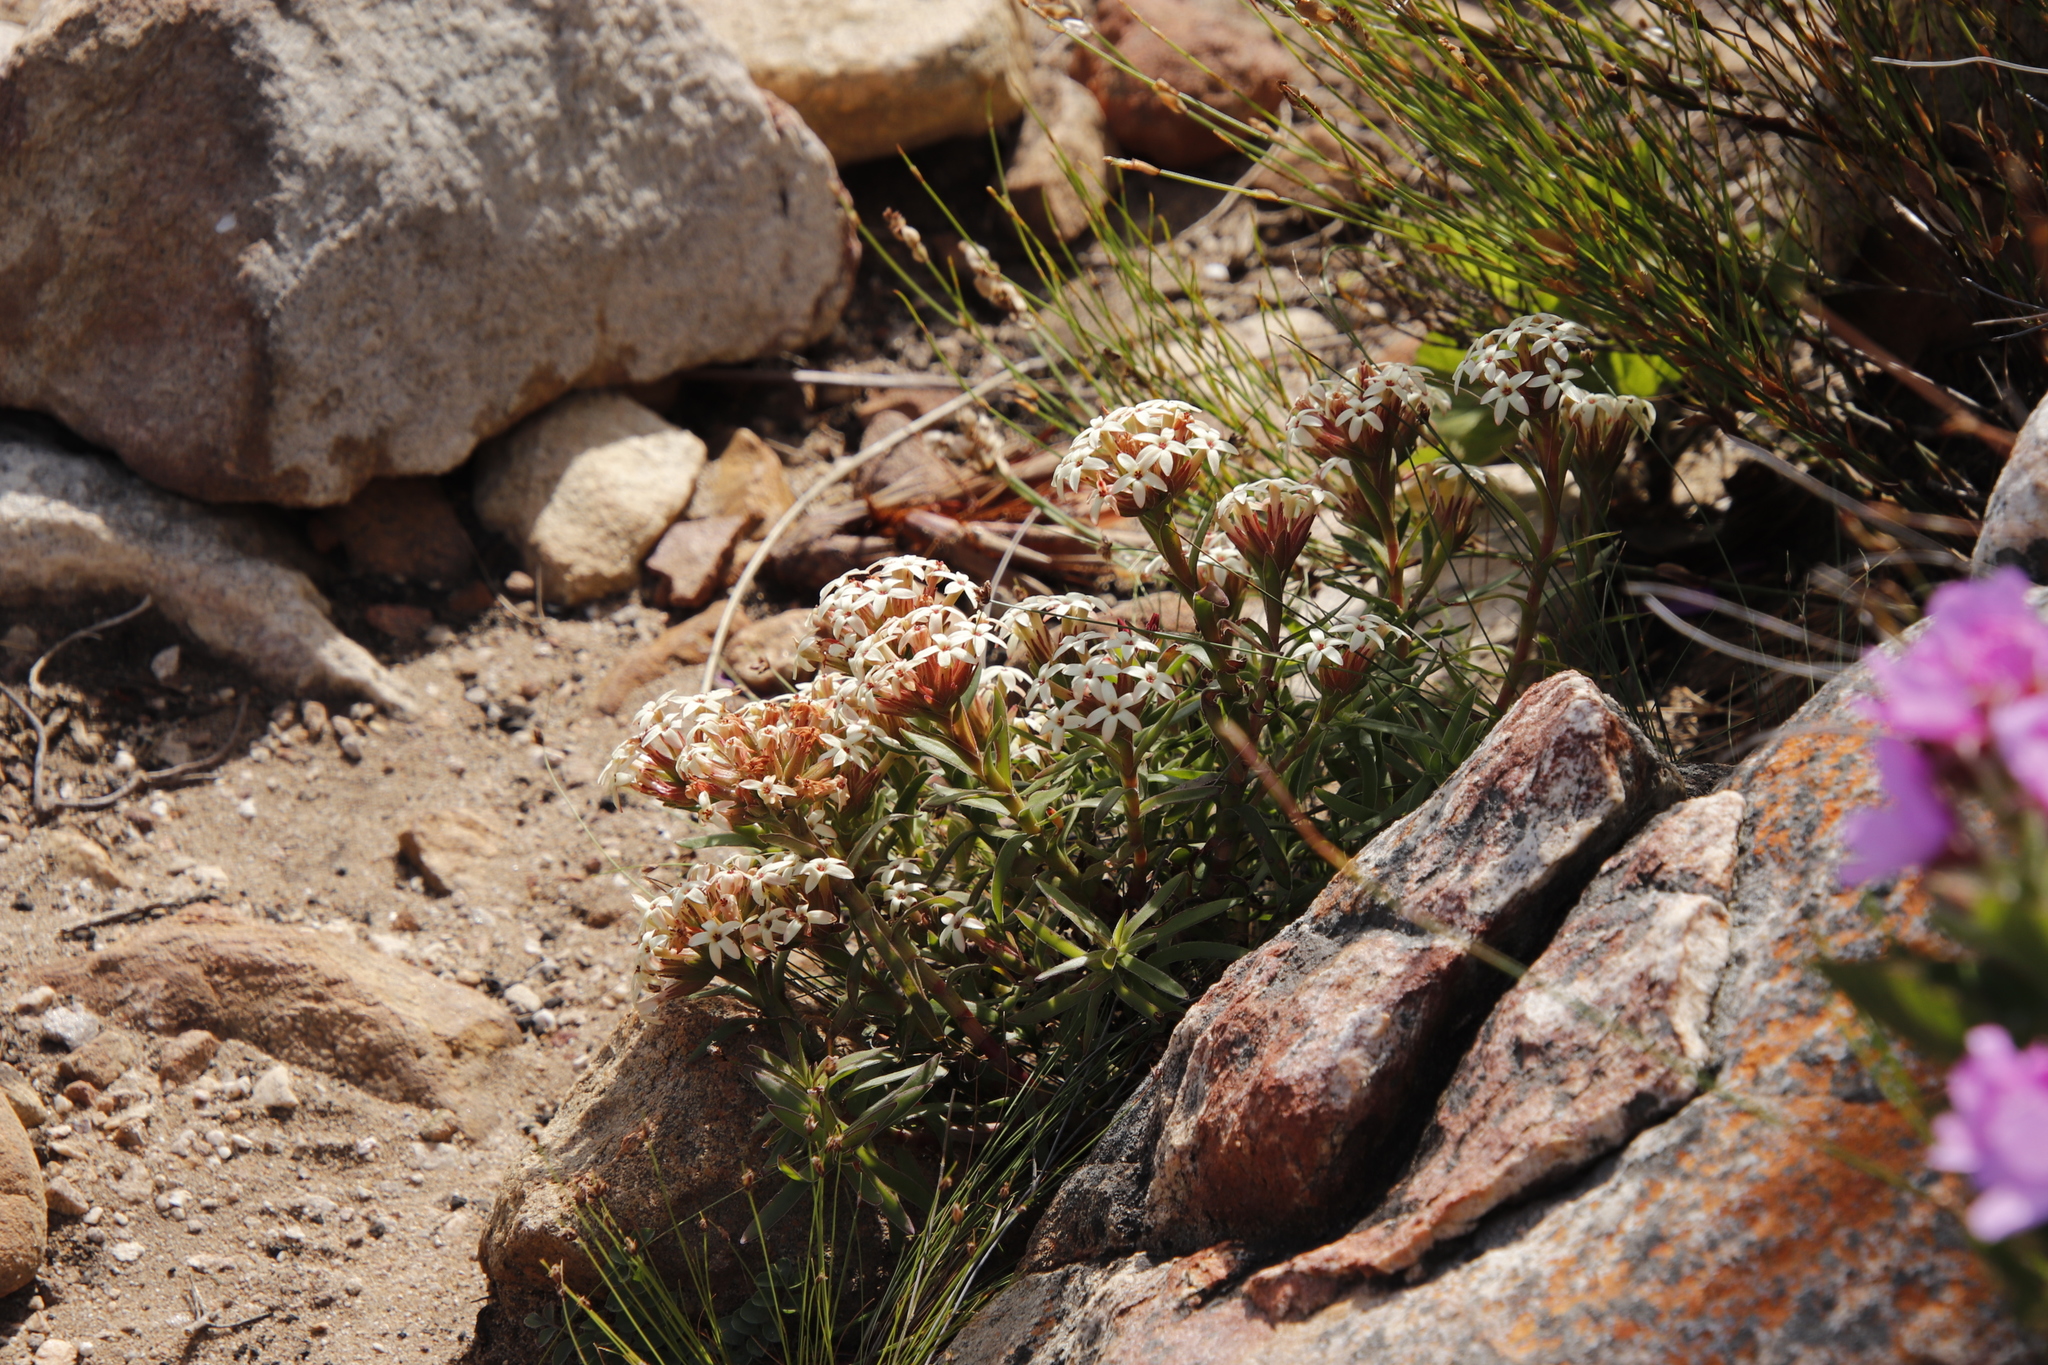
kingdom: Plantae
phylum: Tracheophyta
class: Magnoliopsida
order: Saxifragales
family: Crassulaceae
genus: Crassula
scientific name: Crassula fascicularis
